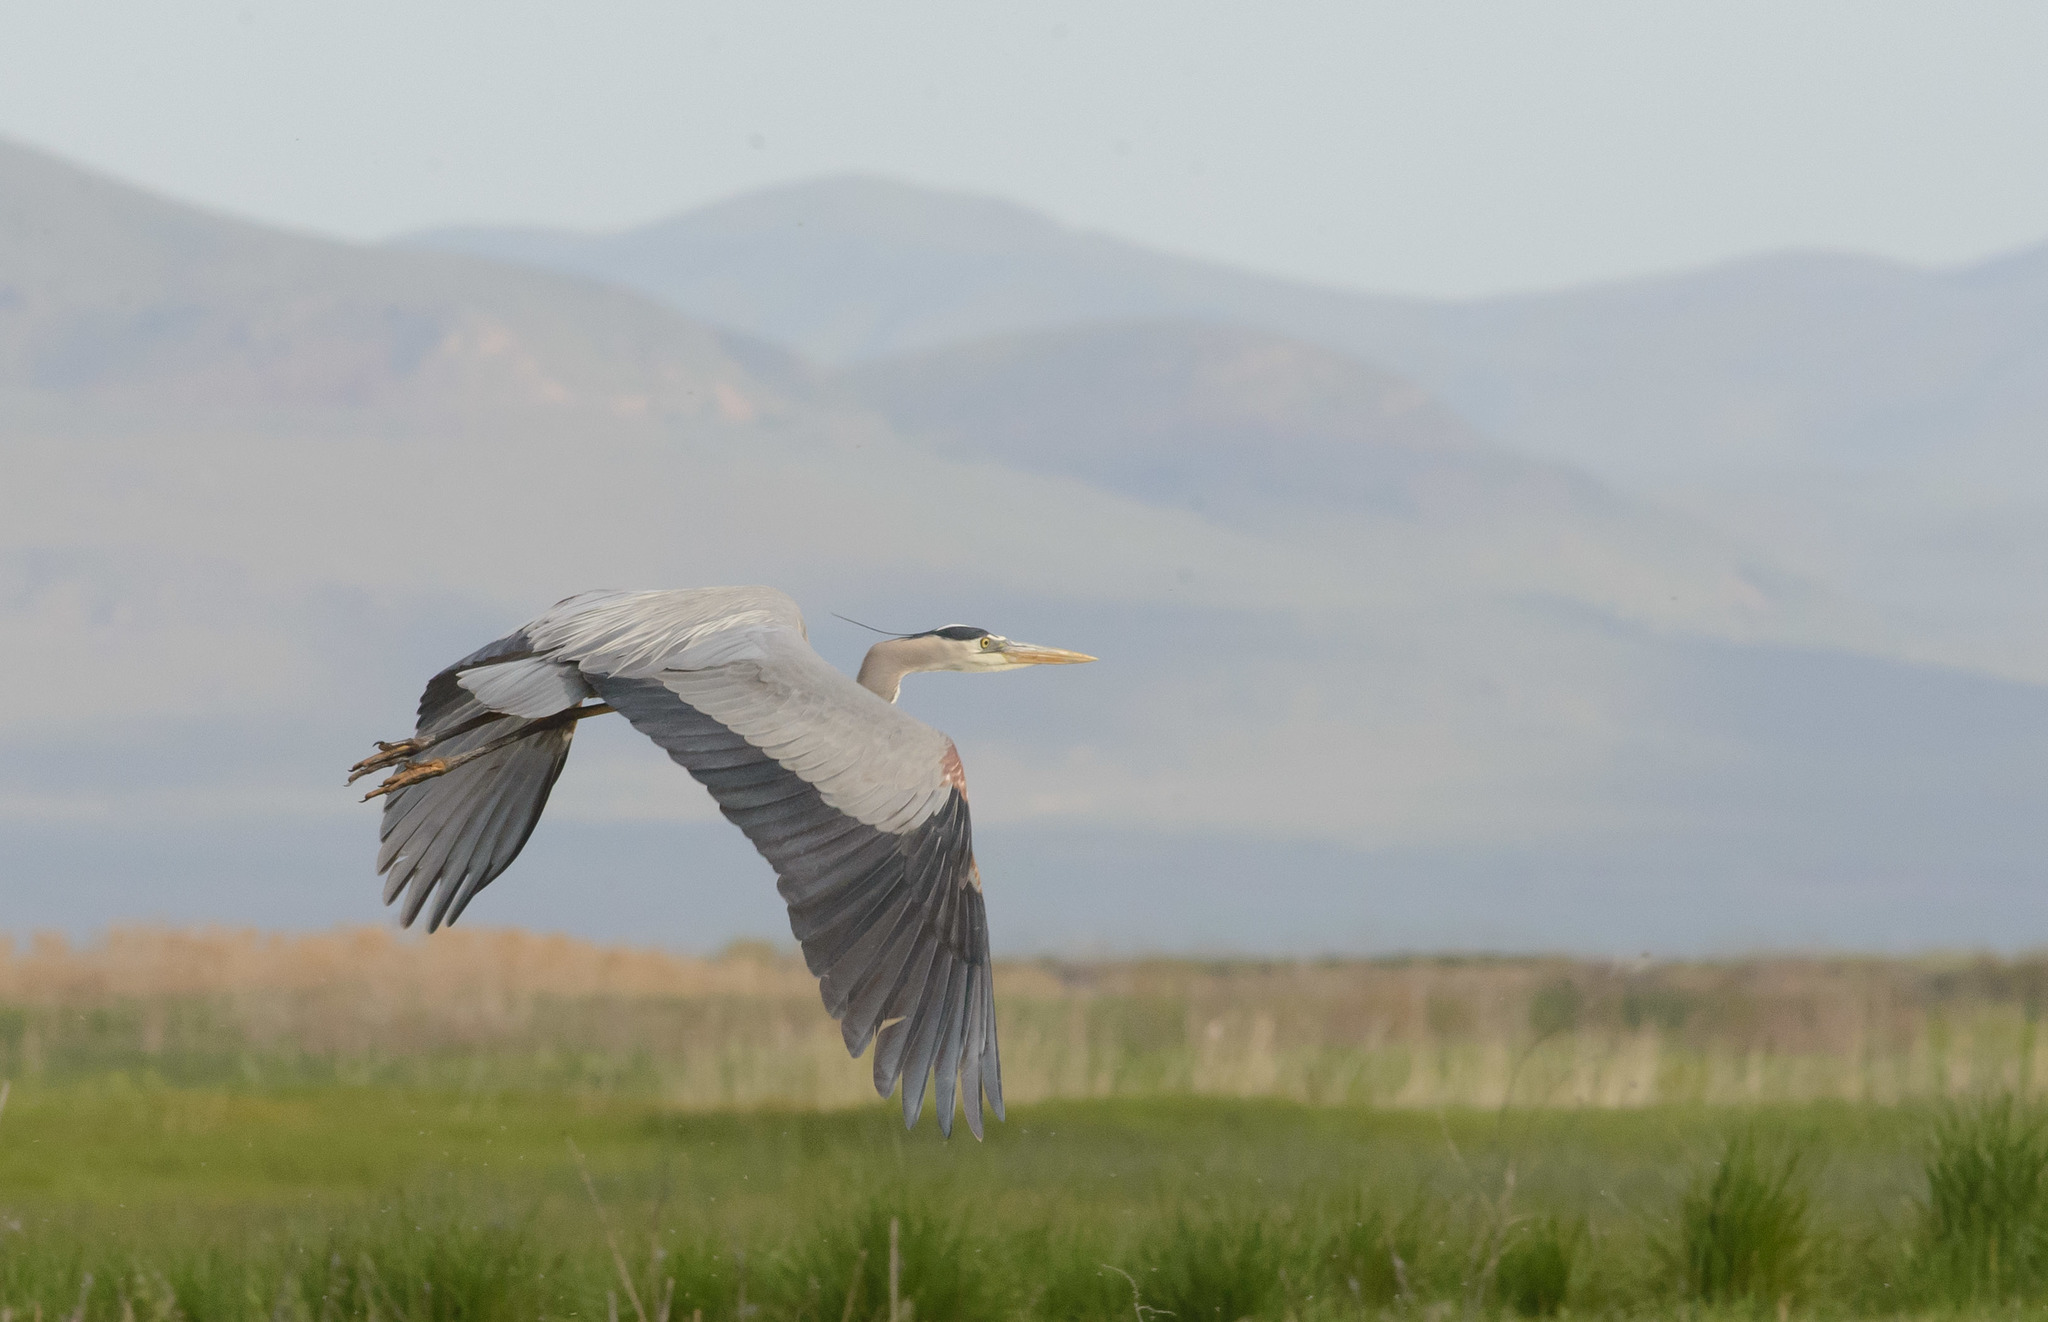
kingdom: Animalia
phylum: Chordata
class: Aves
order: Pelecaniformes
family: Ardeidae
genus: Ardea
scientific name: Ardea herodias
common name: Great blue heron
